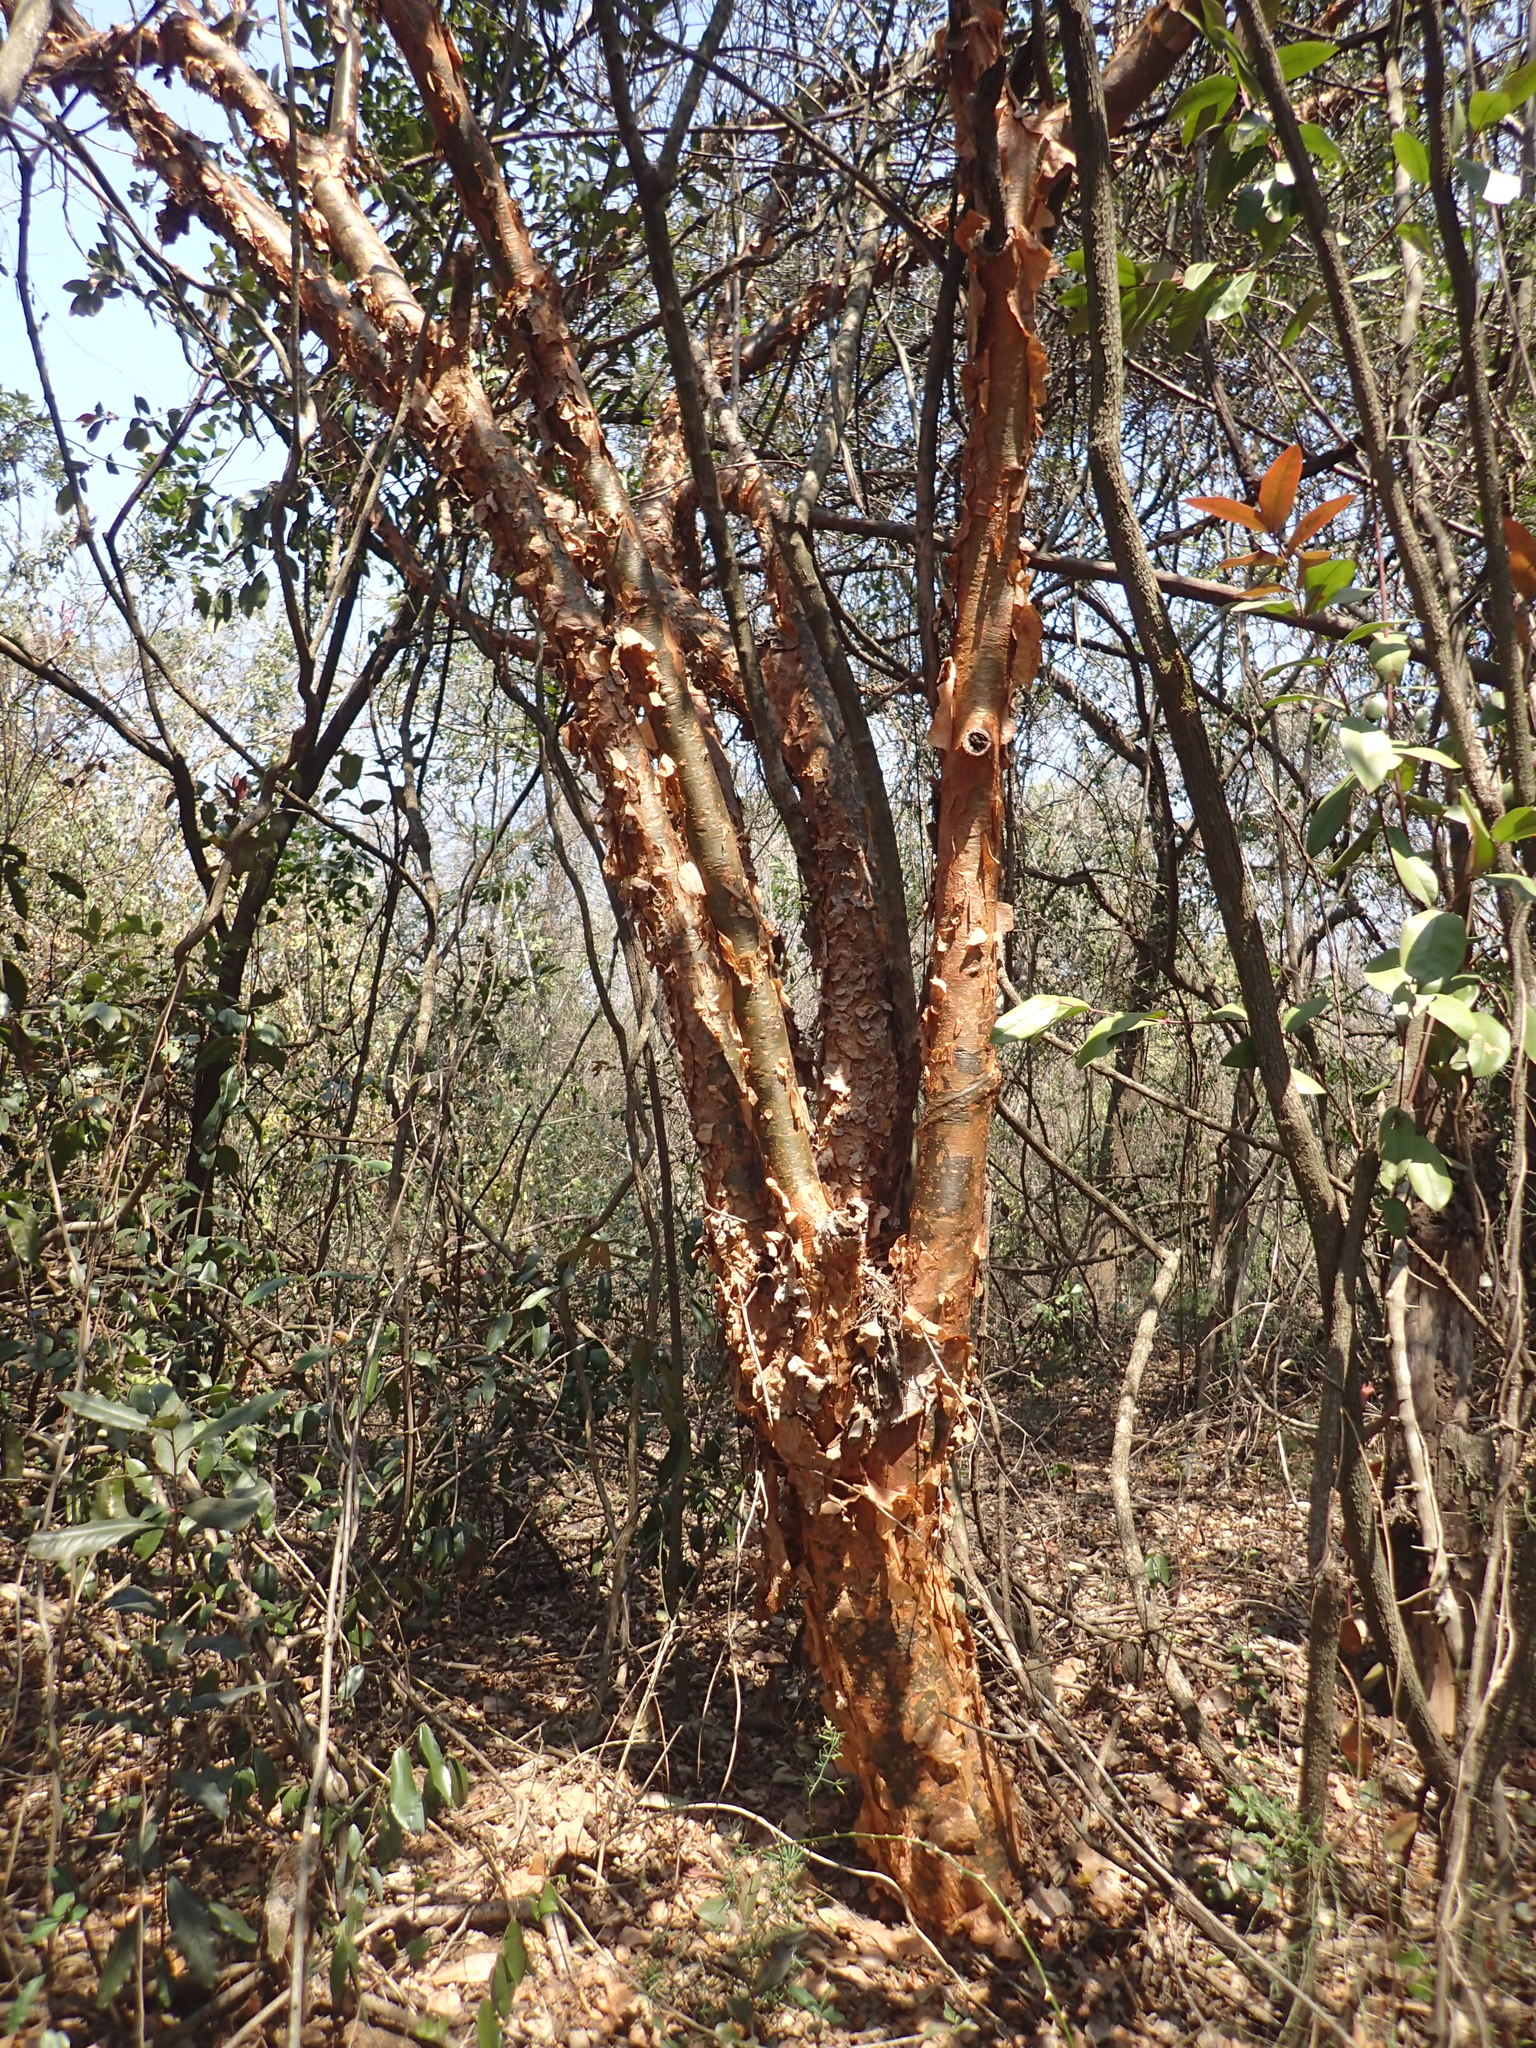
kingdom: Plantae
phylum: Tracheophyta
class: Magnoliopsida
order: Sapindales
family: Burseraceae
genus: Commiphora
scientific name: Commiphora harveyi
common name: Copper-stem corkwood
